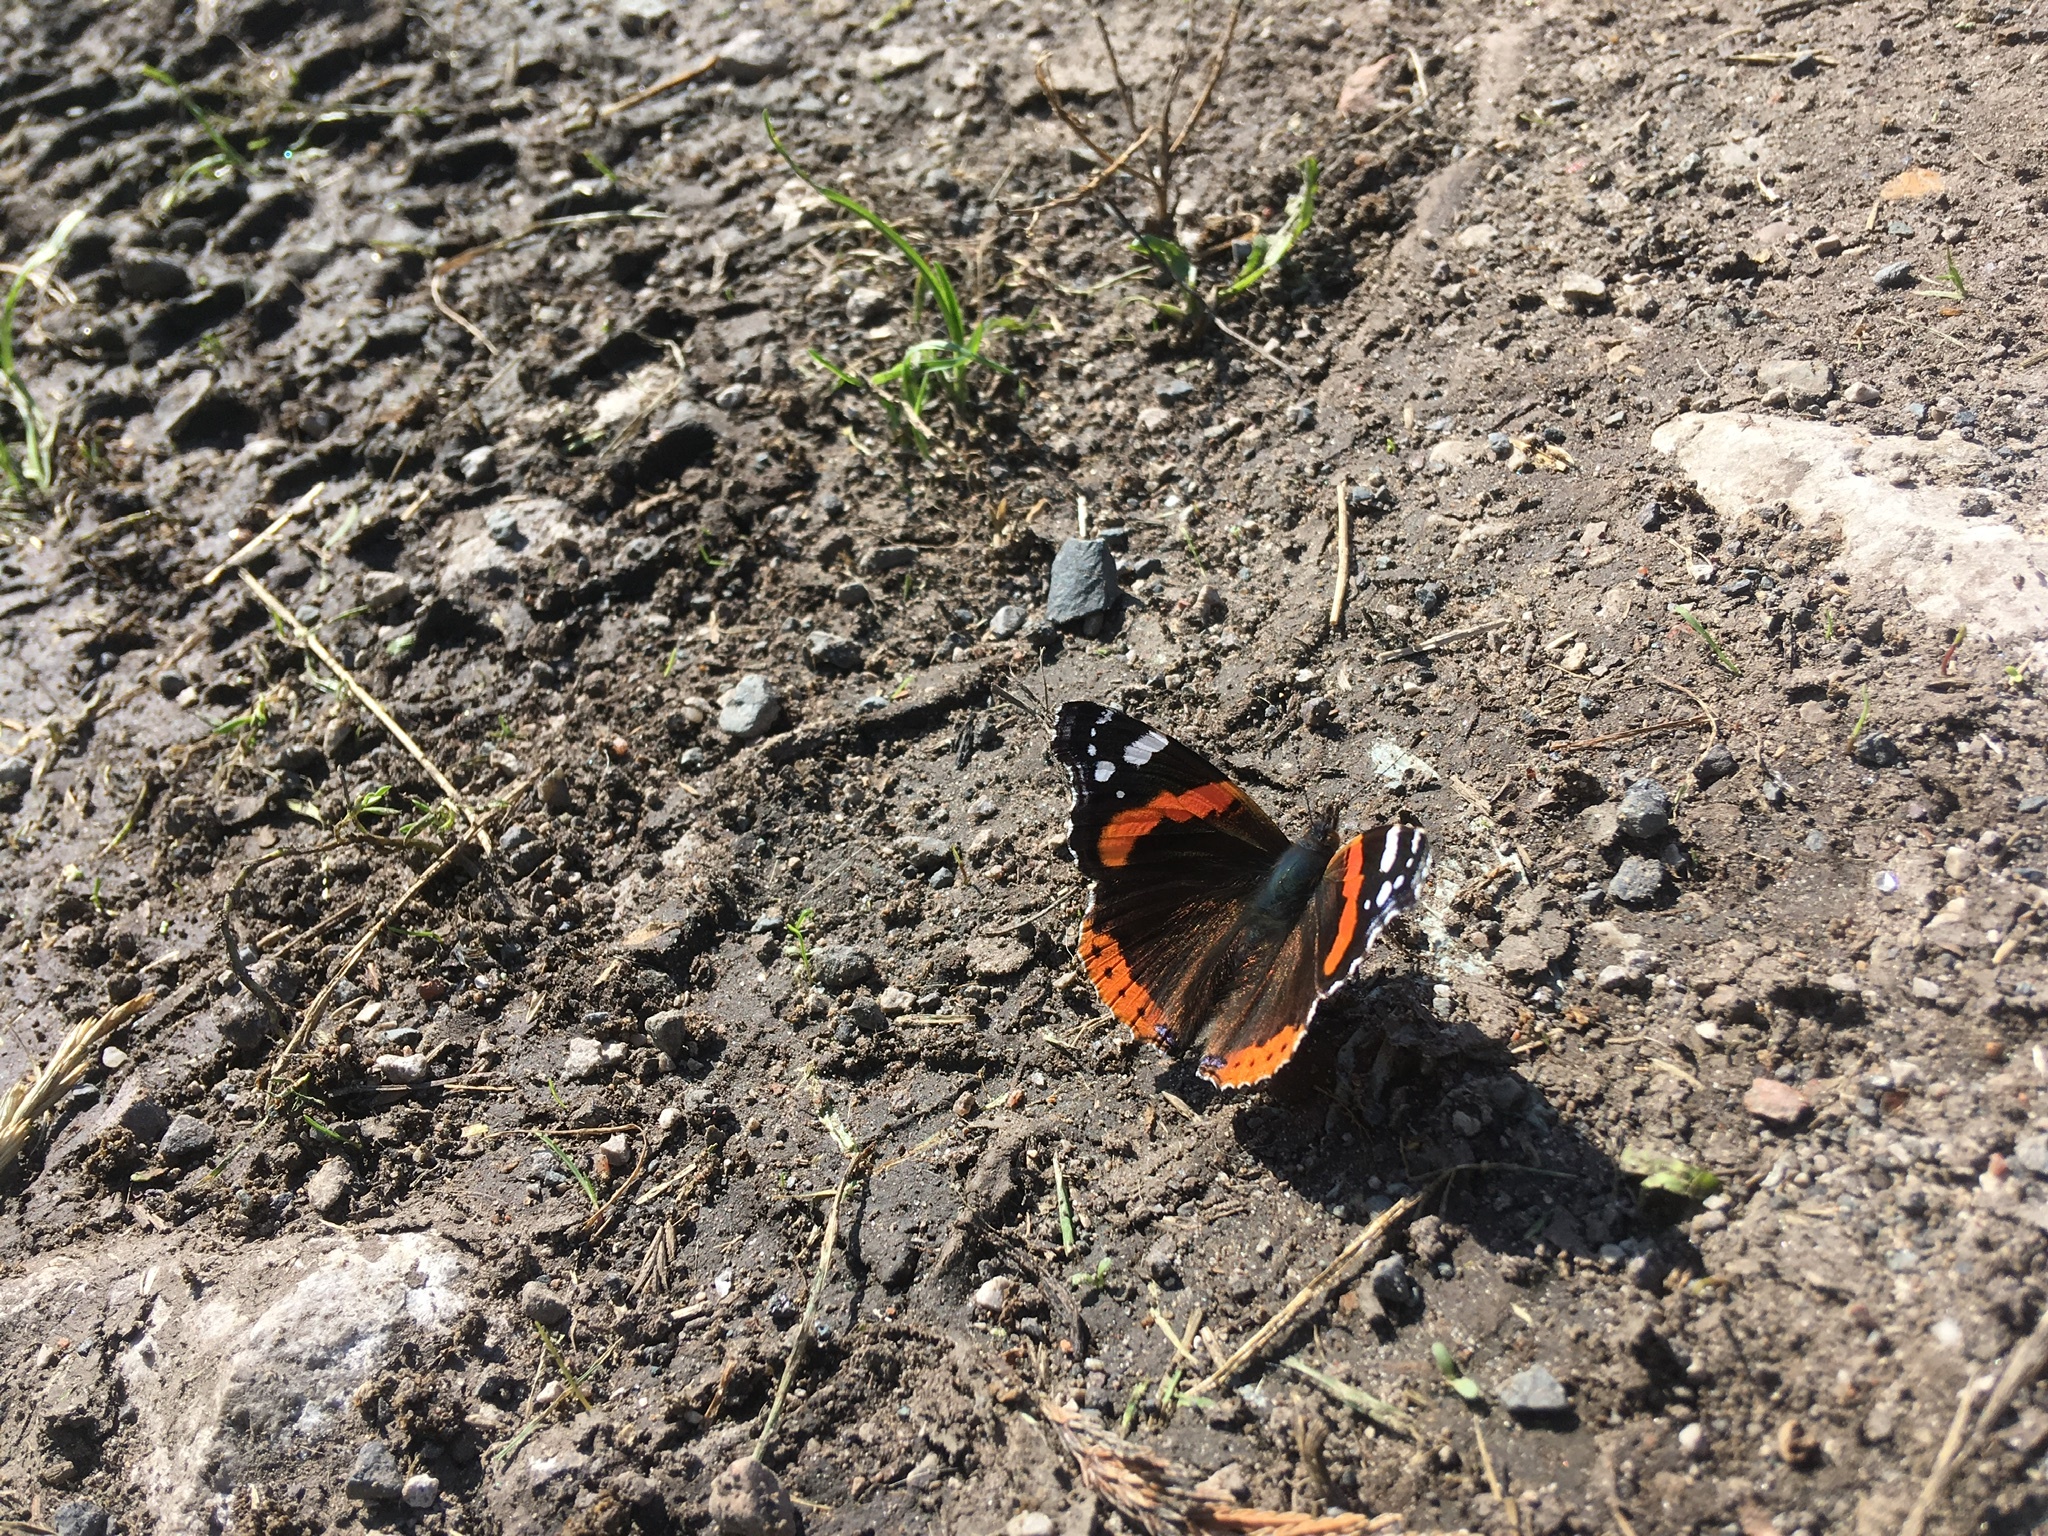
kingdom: Animalia
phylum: Arthropoda
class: Insecta
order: Lepidoptera
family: Nymphalidae
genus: Vanessa
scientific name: Vanessa atalanta
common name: Red admiral
